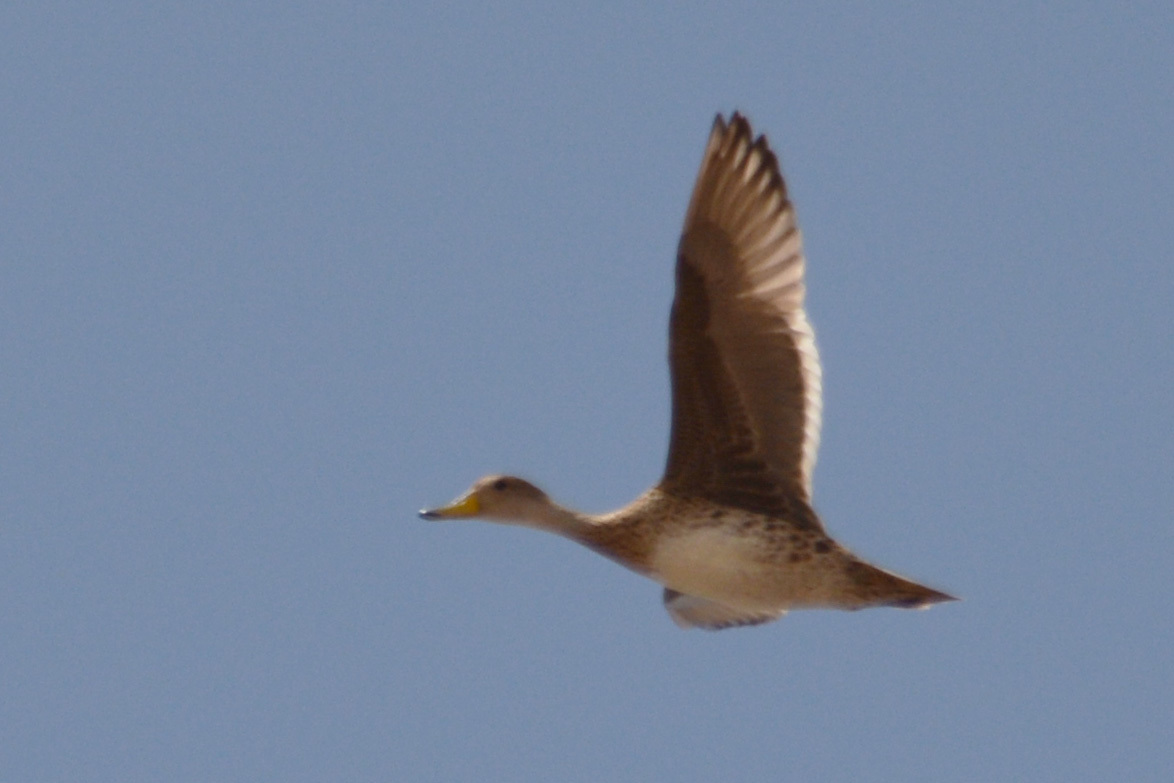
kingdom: Animalia
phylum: Chordata
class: Aves
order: Anseriformes
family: Anatidae
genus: Anas
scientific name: Anas georgica
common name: Yellow-billed pintail
